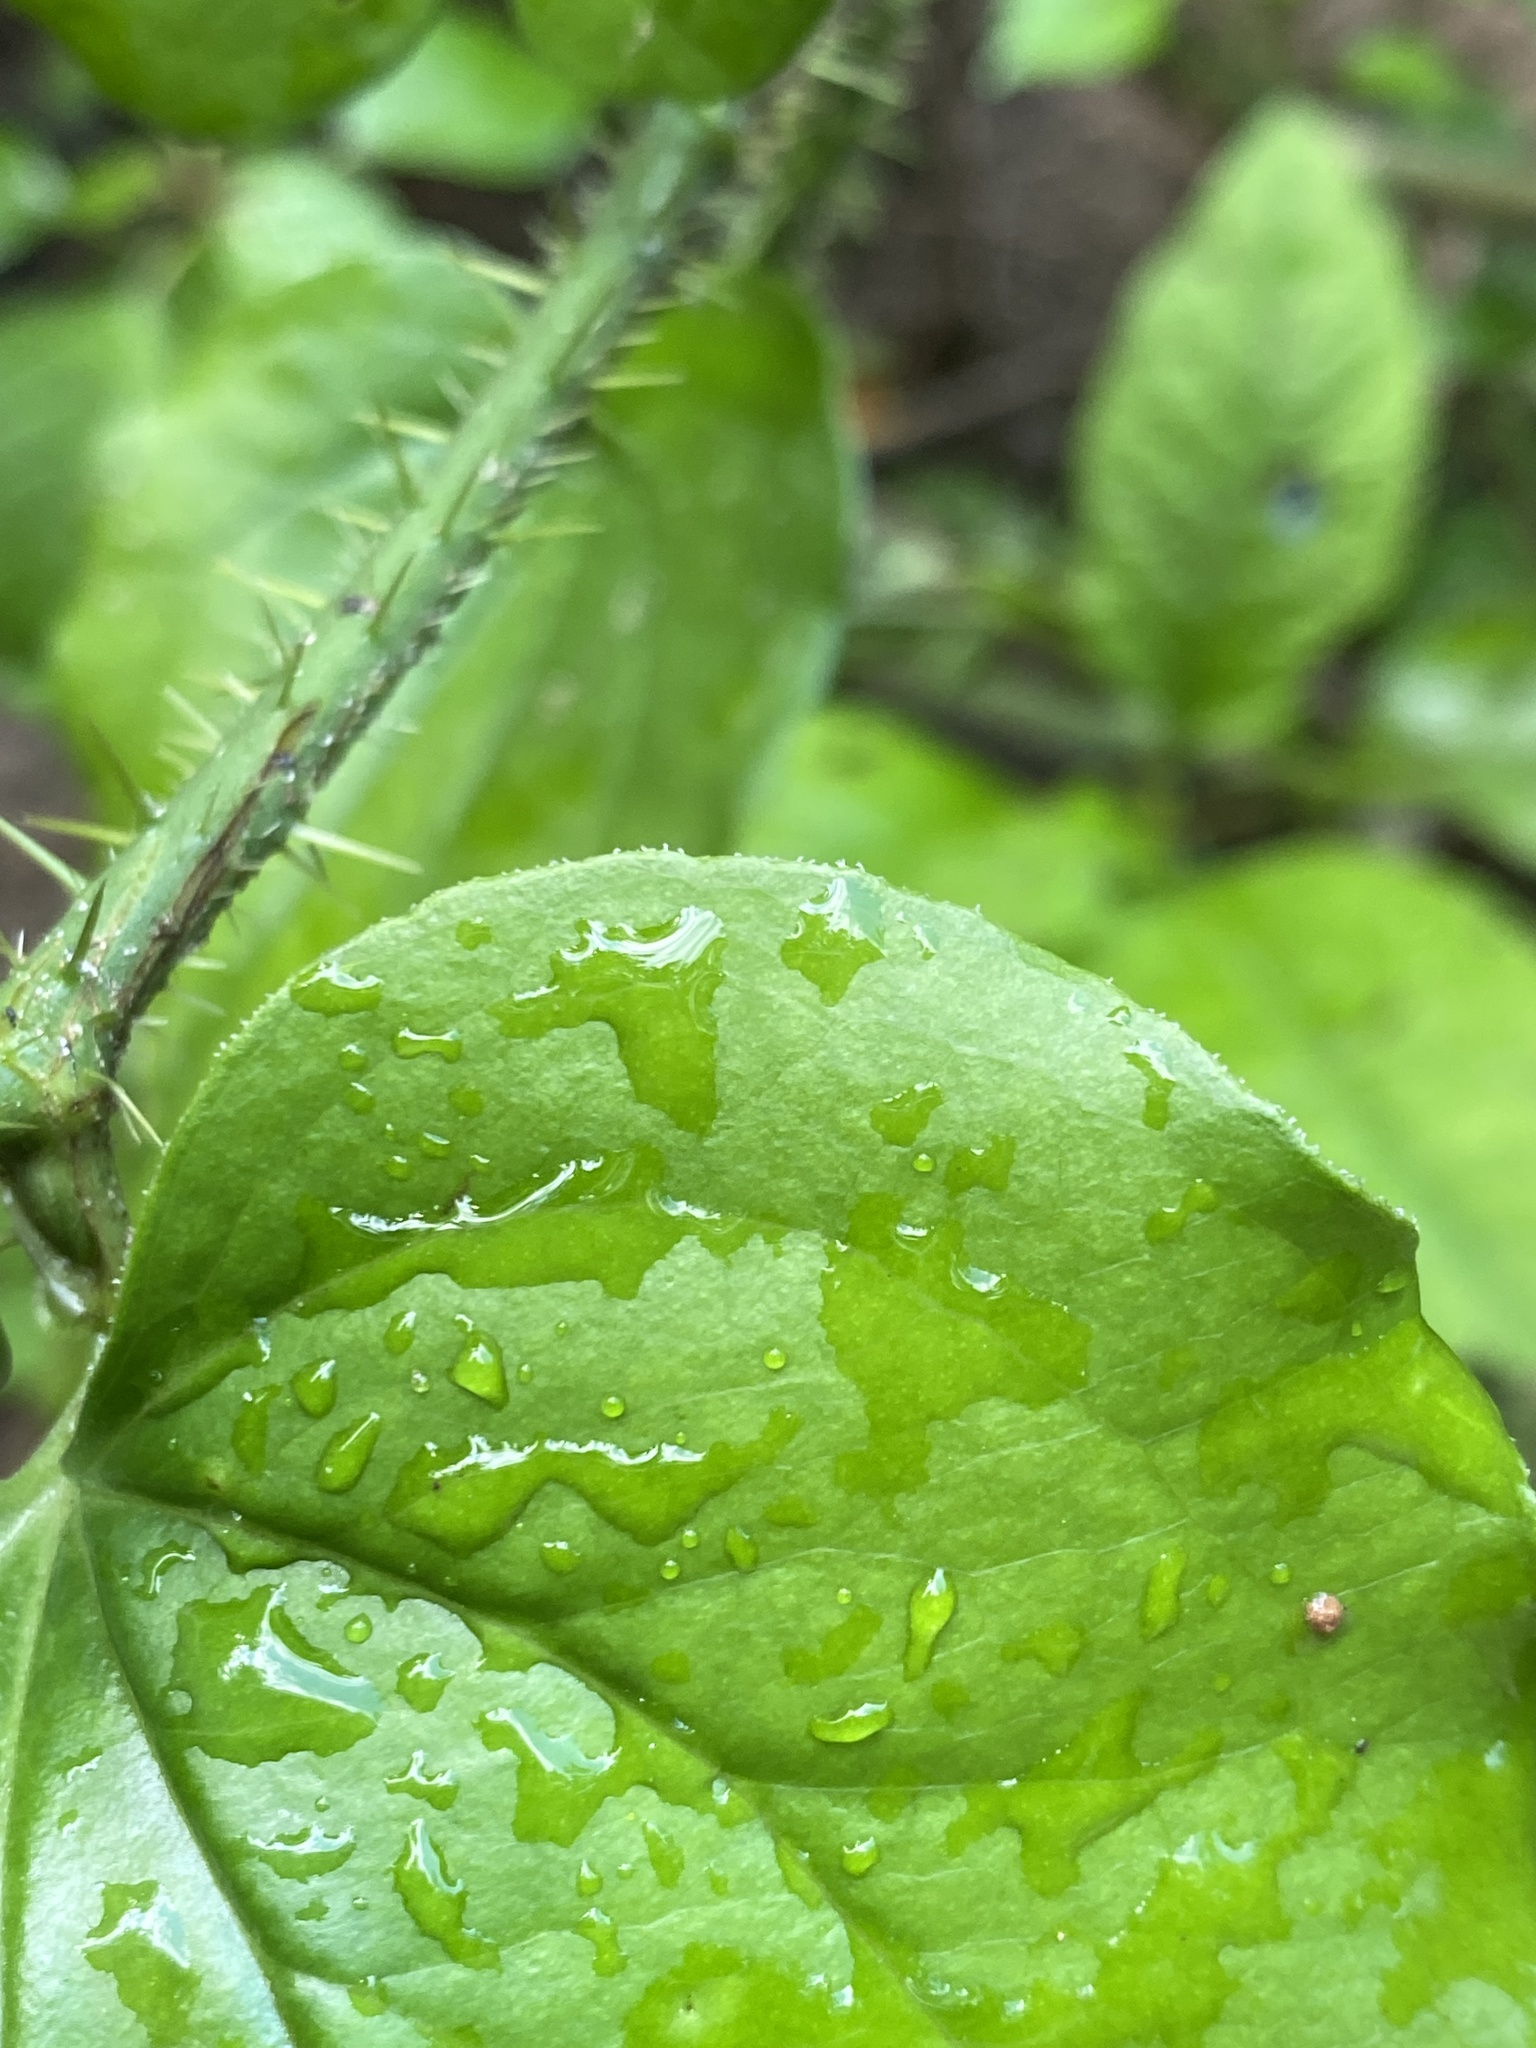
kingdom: Plantae
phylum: Tracheophyta
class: Liliopsida
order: Liliales
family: Smilacaceae
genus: Smilax
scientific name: Smilax tamnoides
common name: Hellfetter
